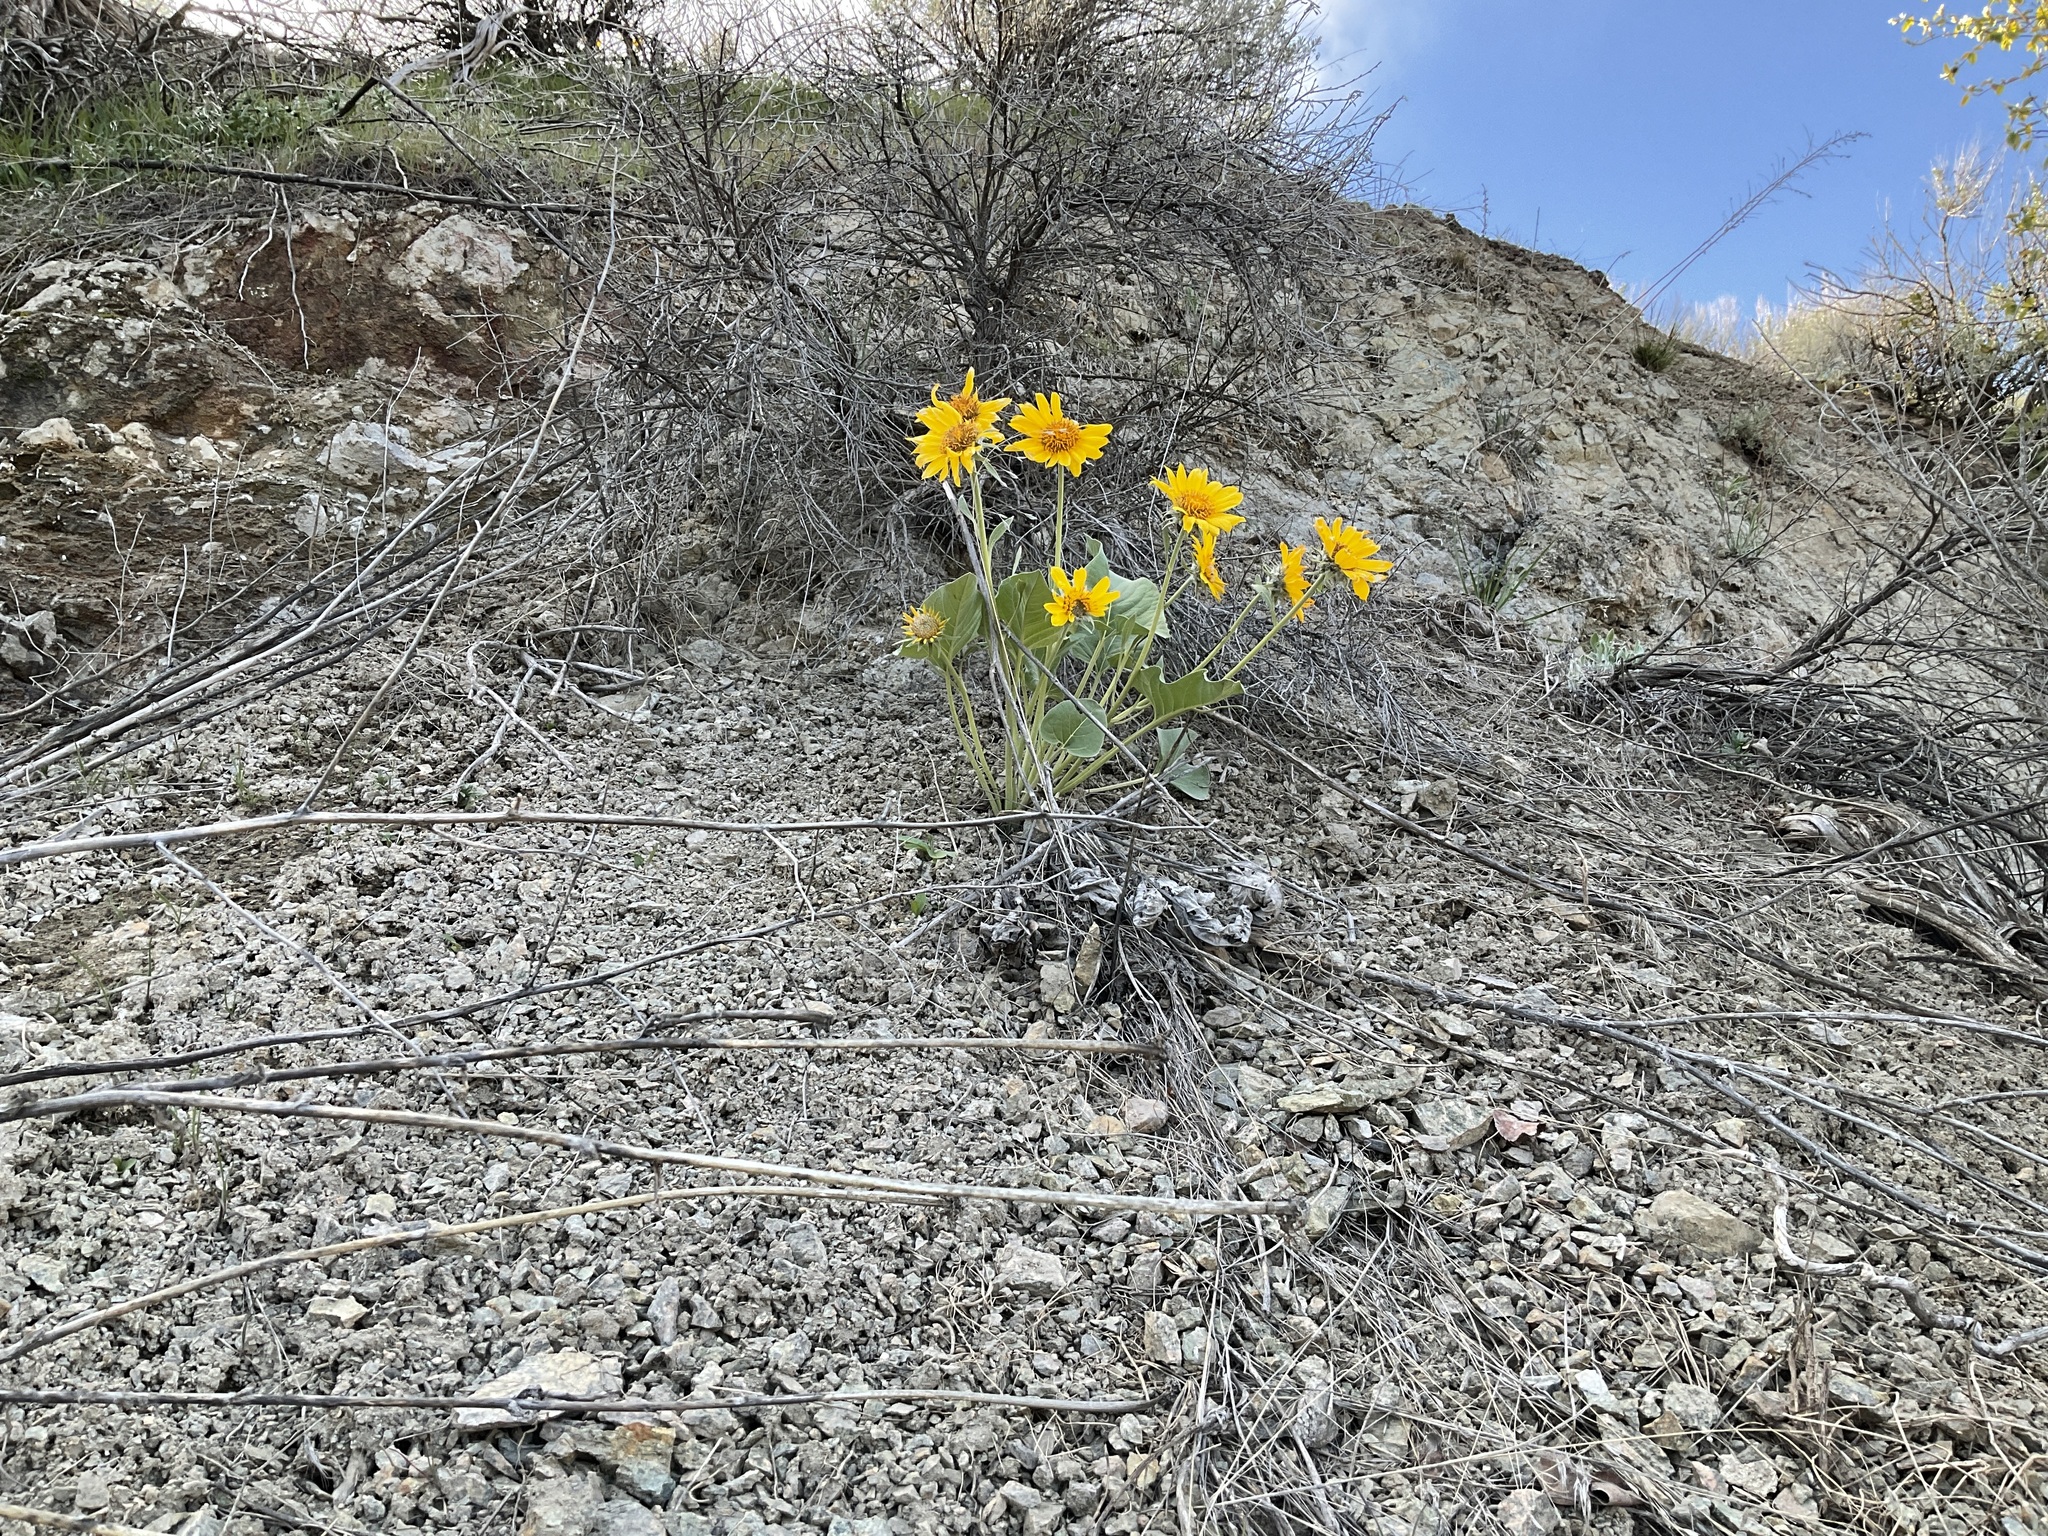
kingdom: Plantae
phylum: Tracheophyta
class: Magnoliopsida
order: Asterales
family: Asteraceae
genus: Wyethia
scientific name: Wyethia sagittata
